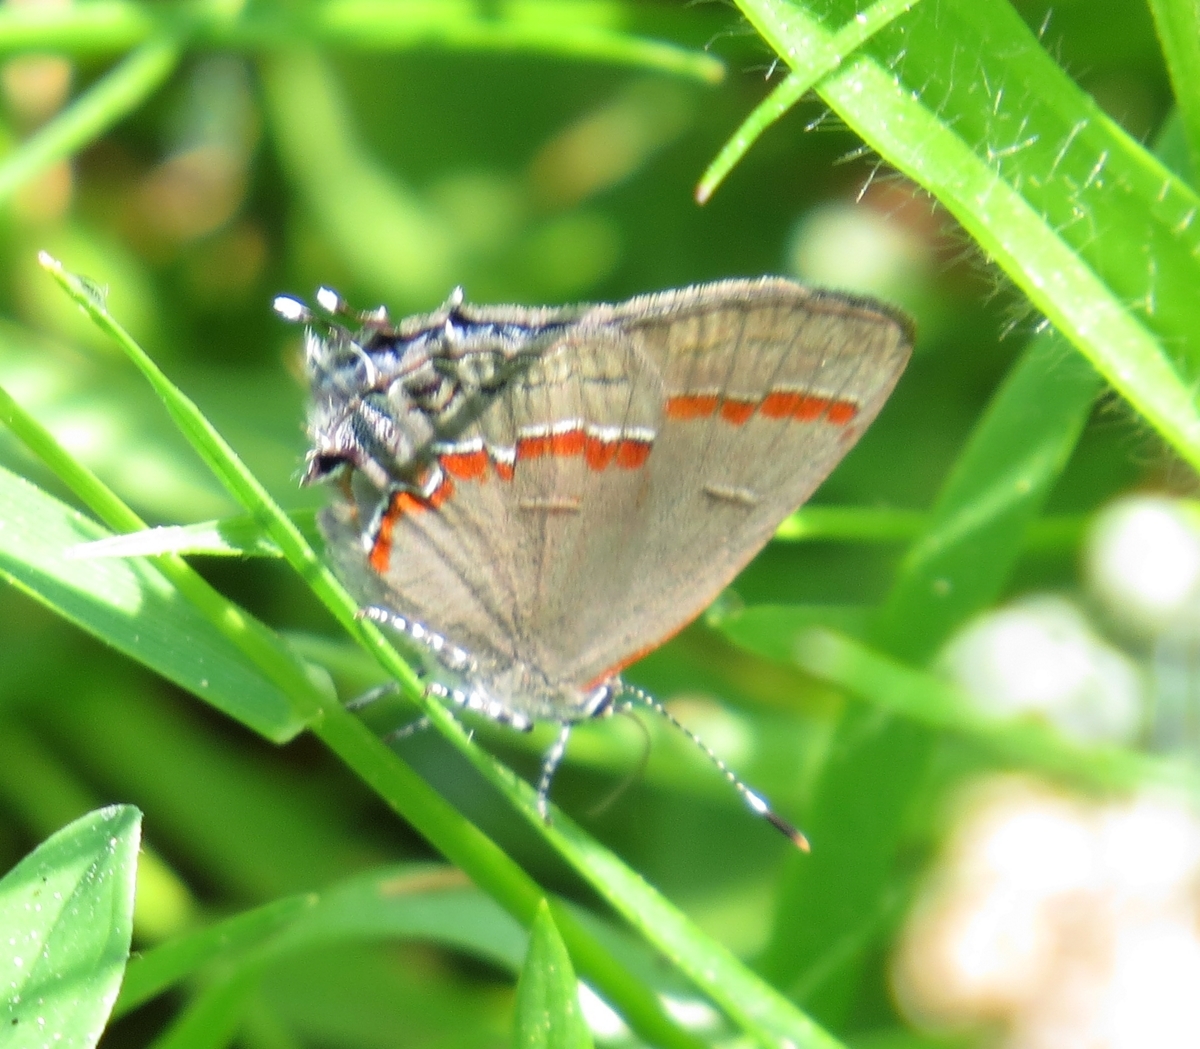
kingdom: Animalia
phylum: Arthropoda
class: Insecta
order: Lepidoptera
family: Lycaenidae
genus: Calycopis
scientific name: Calycopis cecrops
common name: Red-banded hairstreak
